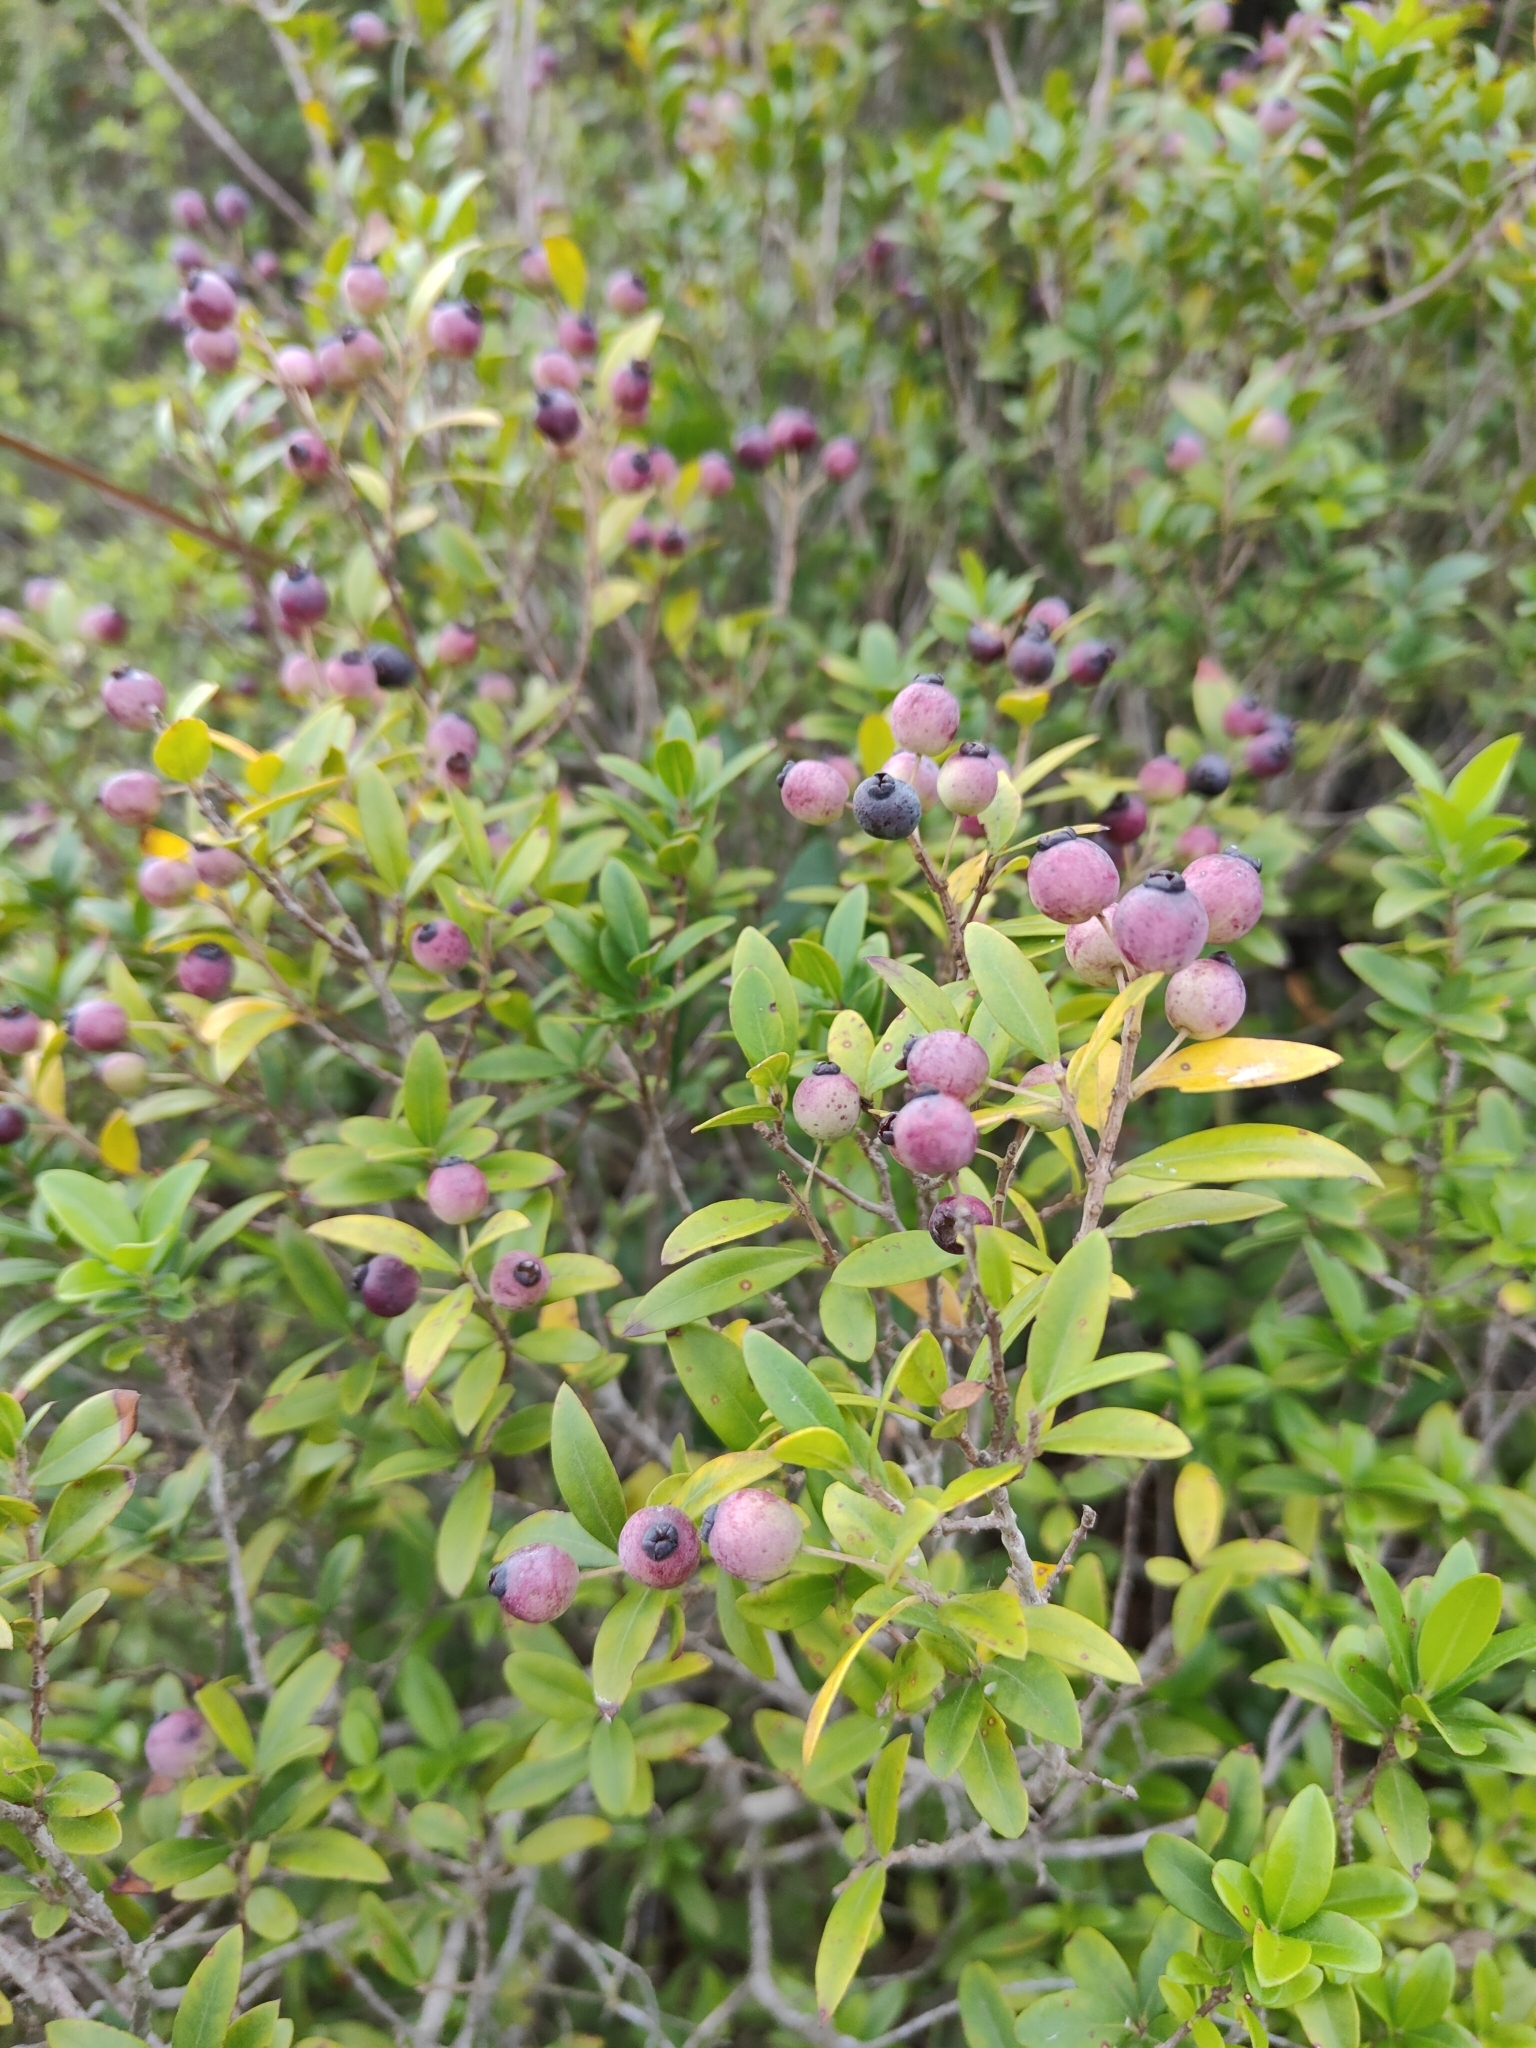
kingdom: Plantae
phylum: Tracheophyta
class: Magnoliopsida
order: Myrtales
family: Myrtaceae
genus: Myrtus
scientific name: Myrtus communis
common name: Myrtle
